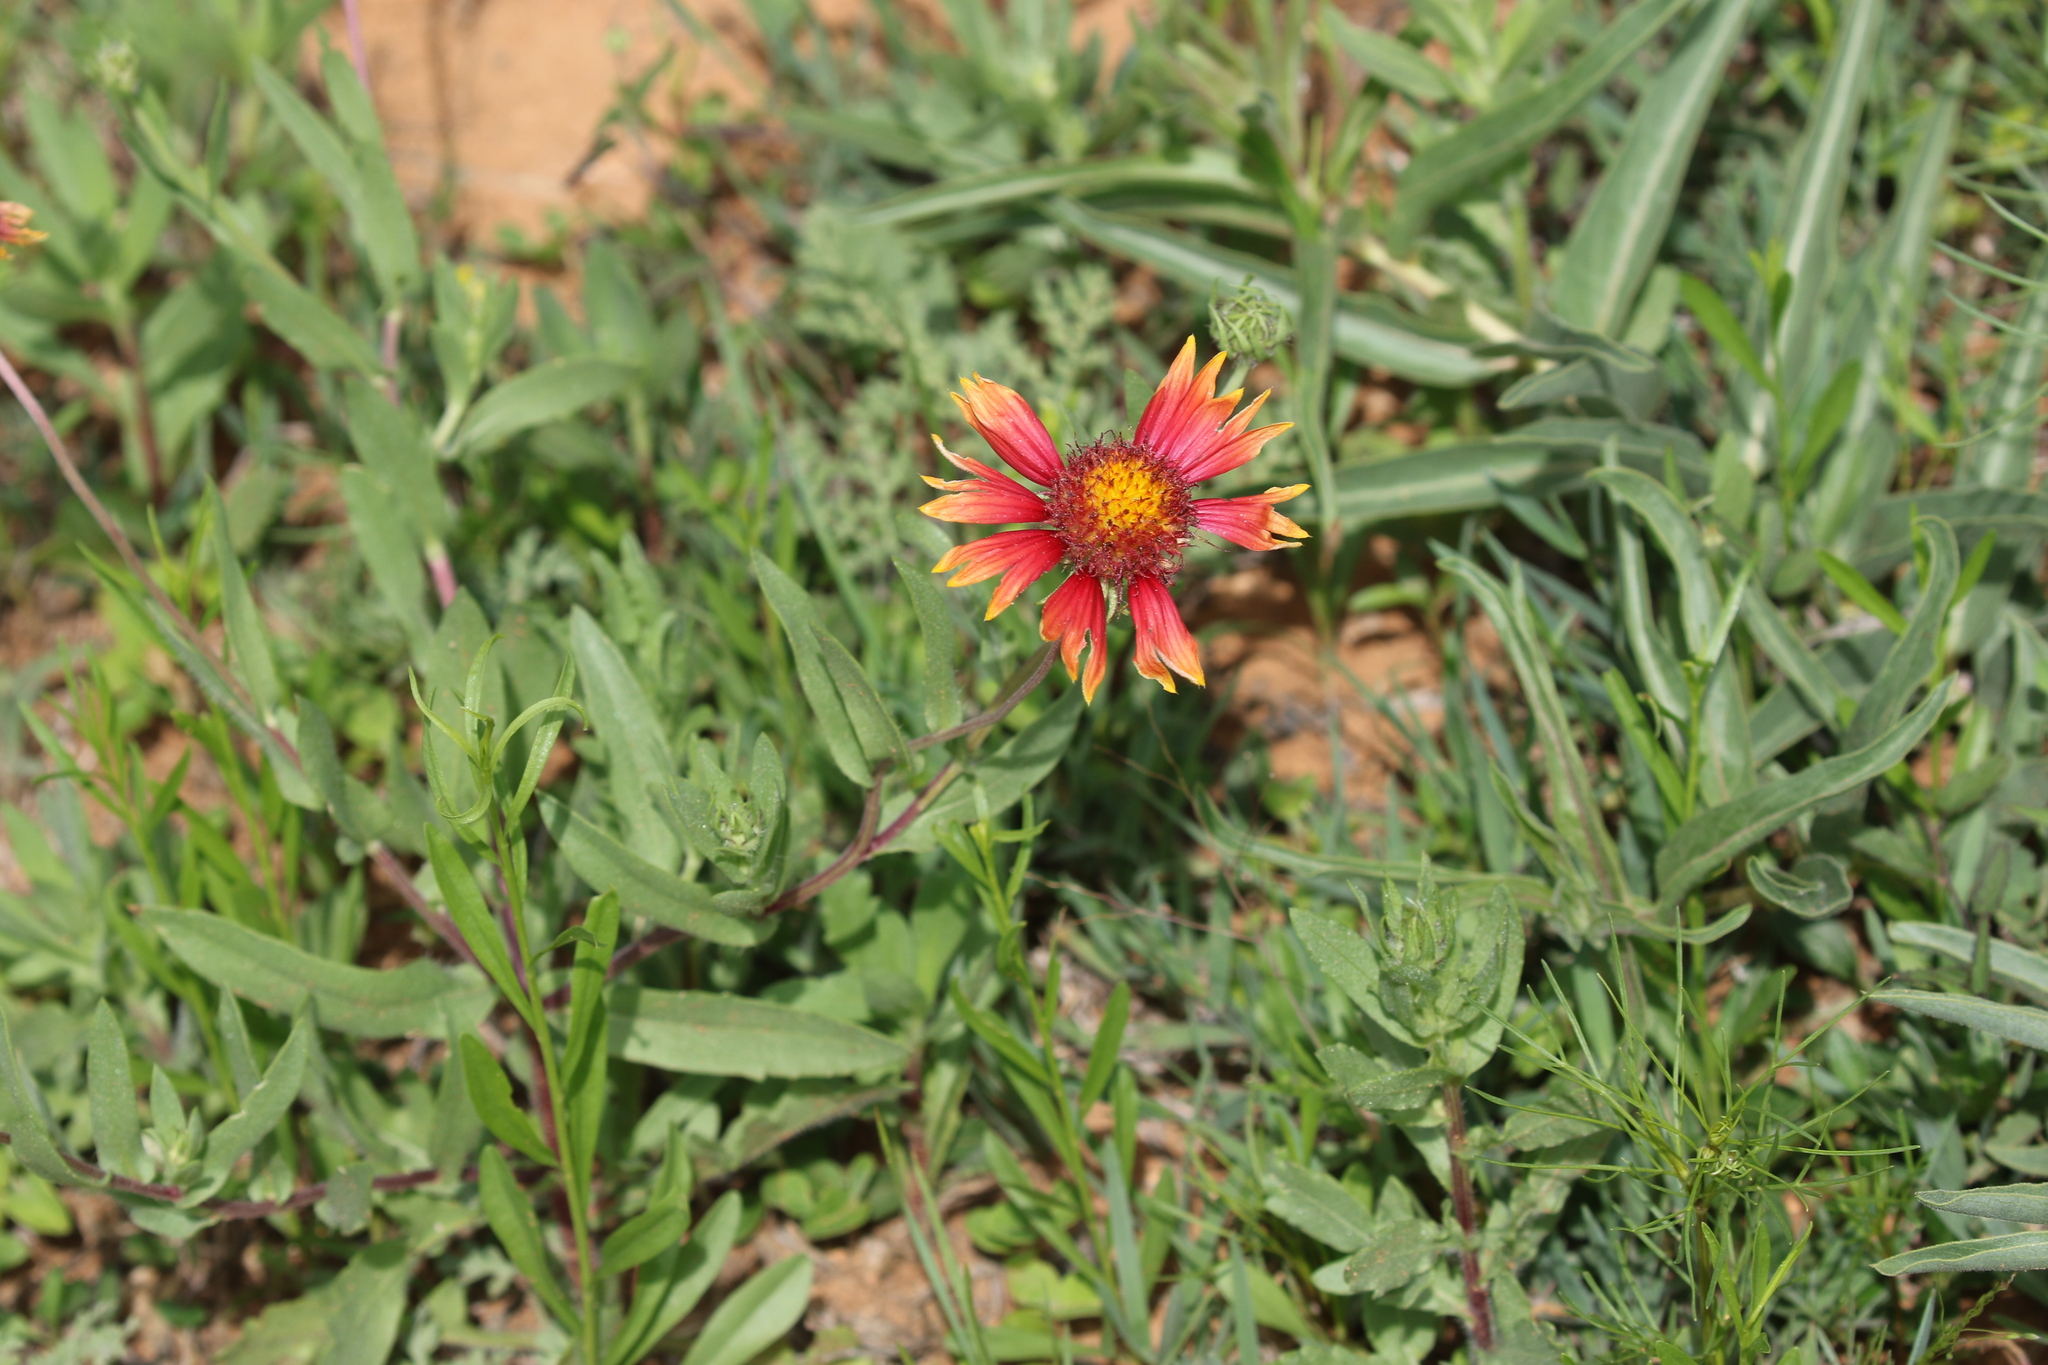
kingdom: Plantae
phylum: Tracheophyta
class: Magnoliopsida
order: Asterales
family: Asteraceae
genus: Gaillardia
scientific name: Gaillardia pulchella
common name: Firewheel
